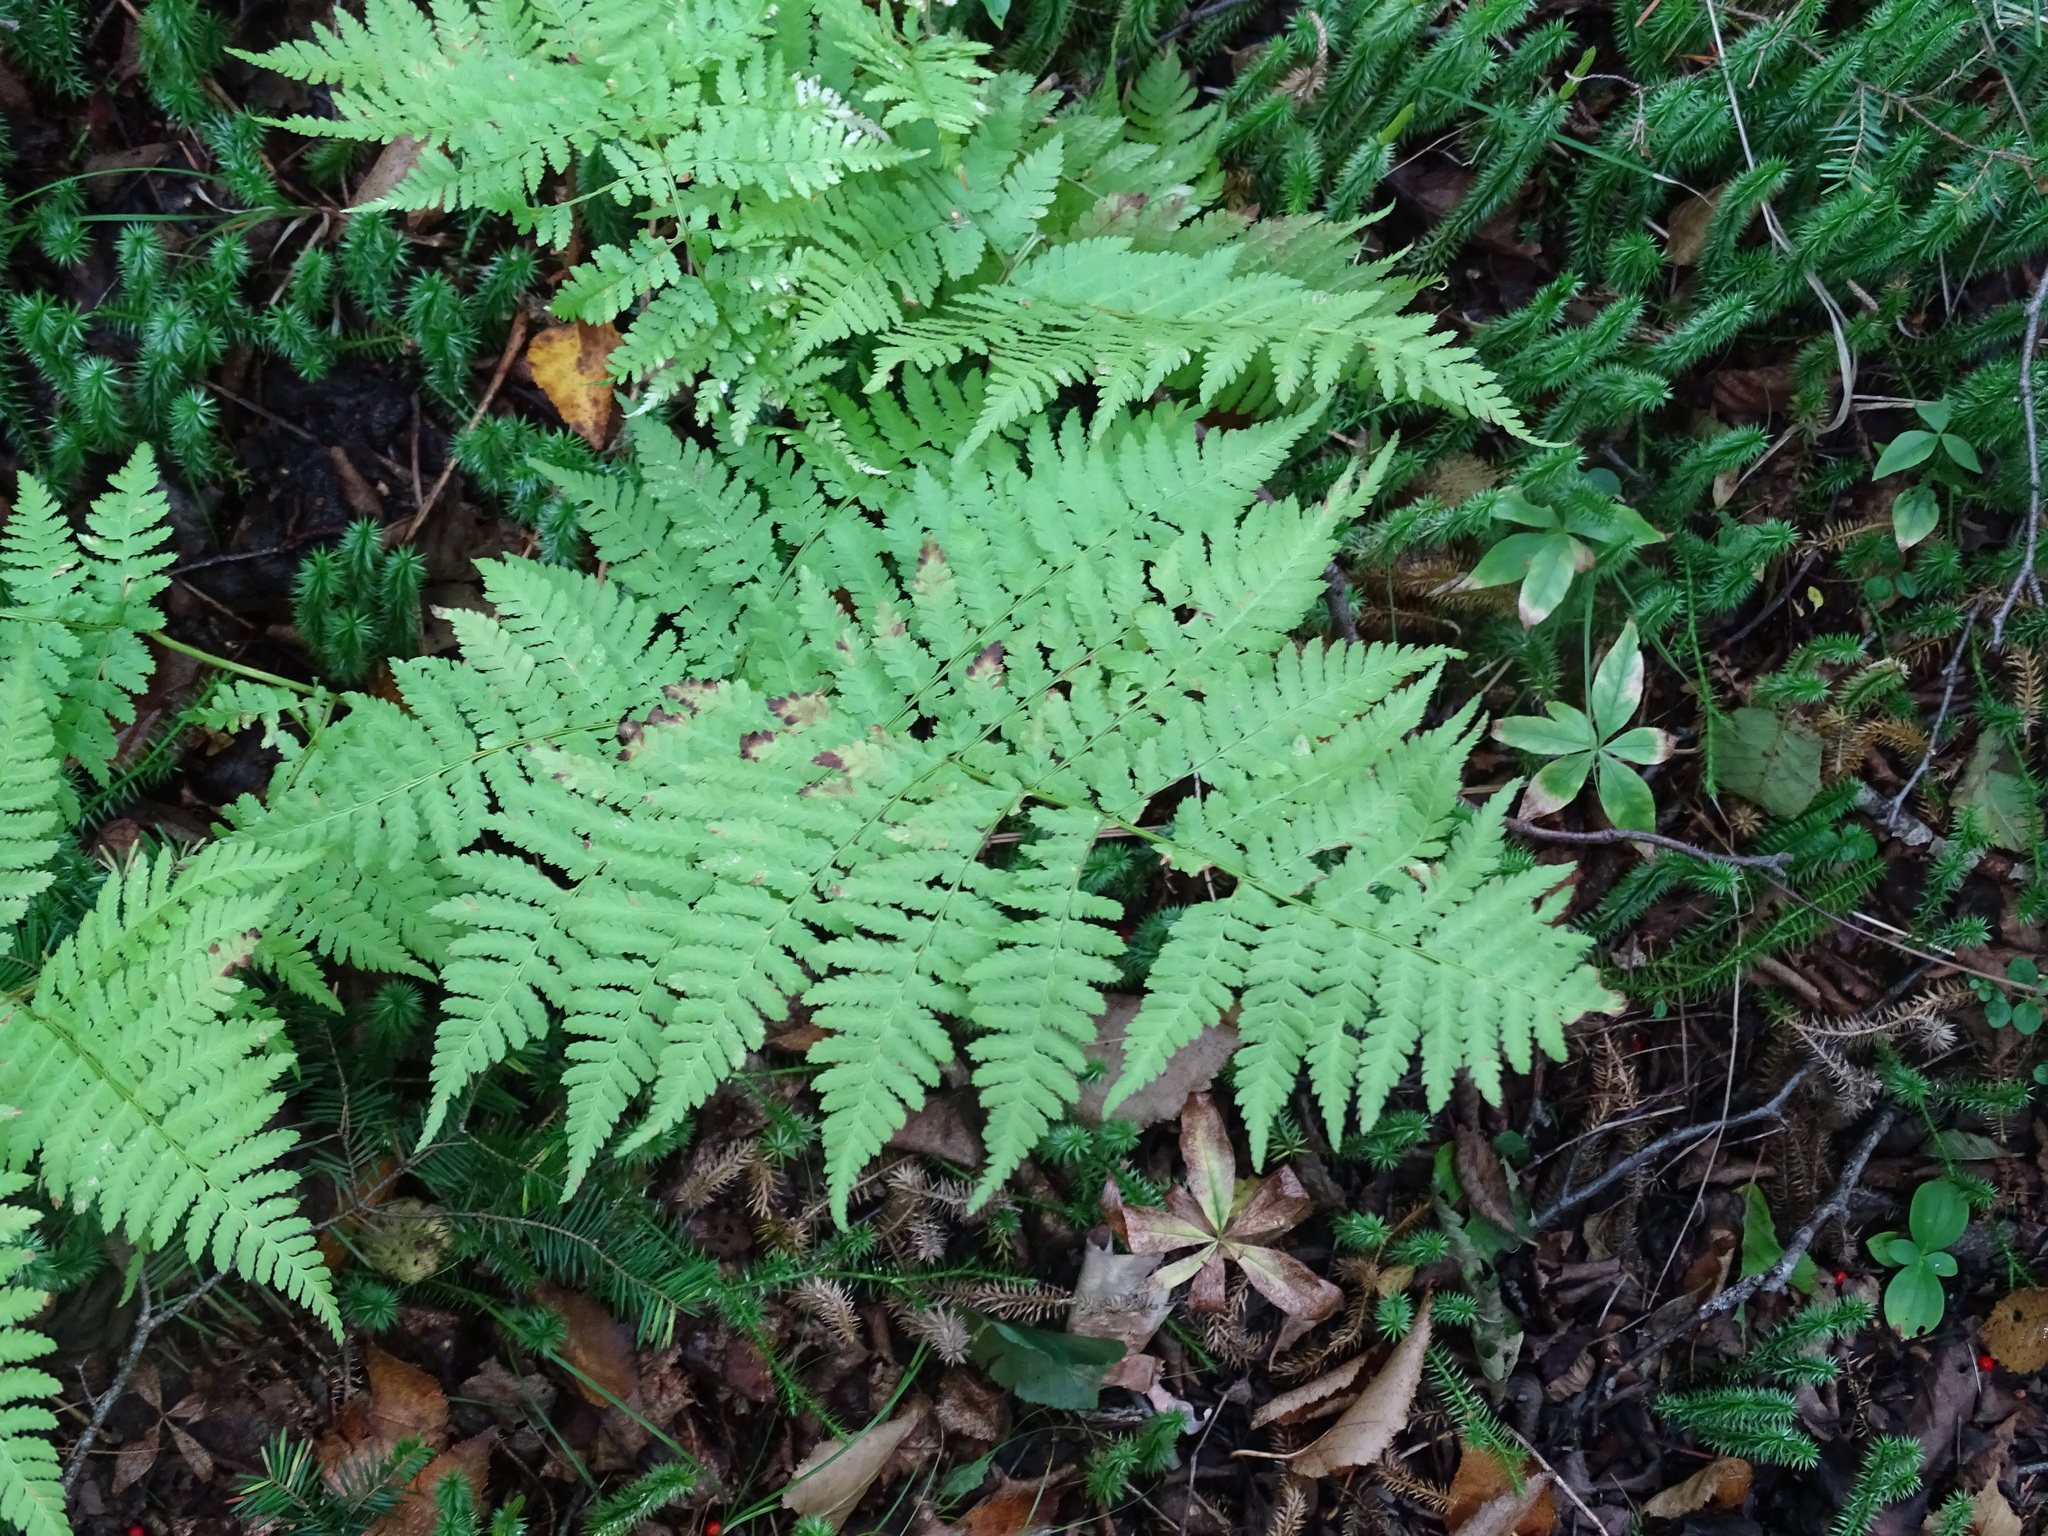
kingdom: Plantae
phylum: Tracheophyta
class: Polypodiopsida
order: Polypodiales
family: Dryopteridaceae
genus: Dryopteris
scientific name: Dryopteris expansa
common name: Northern buckler fern
